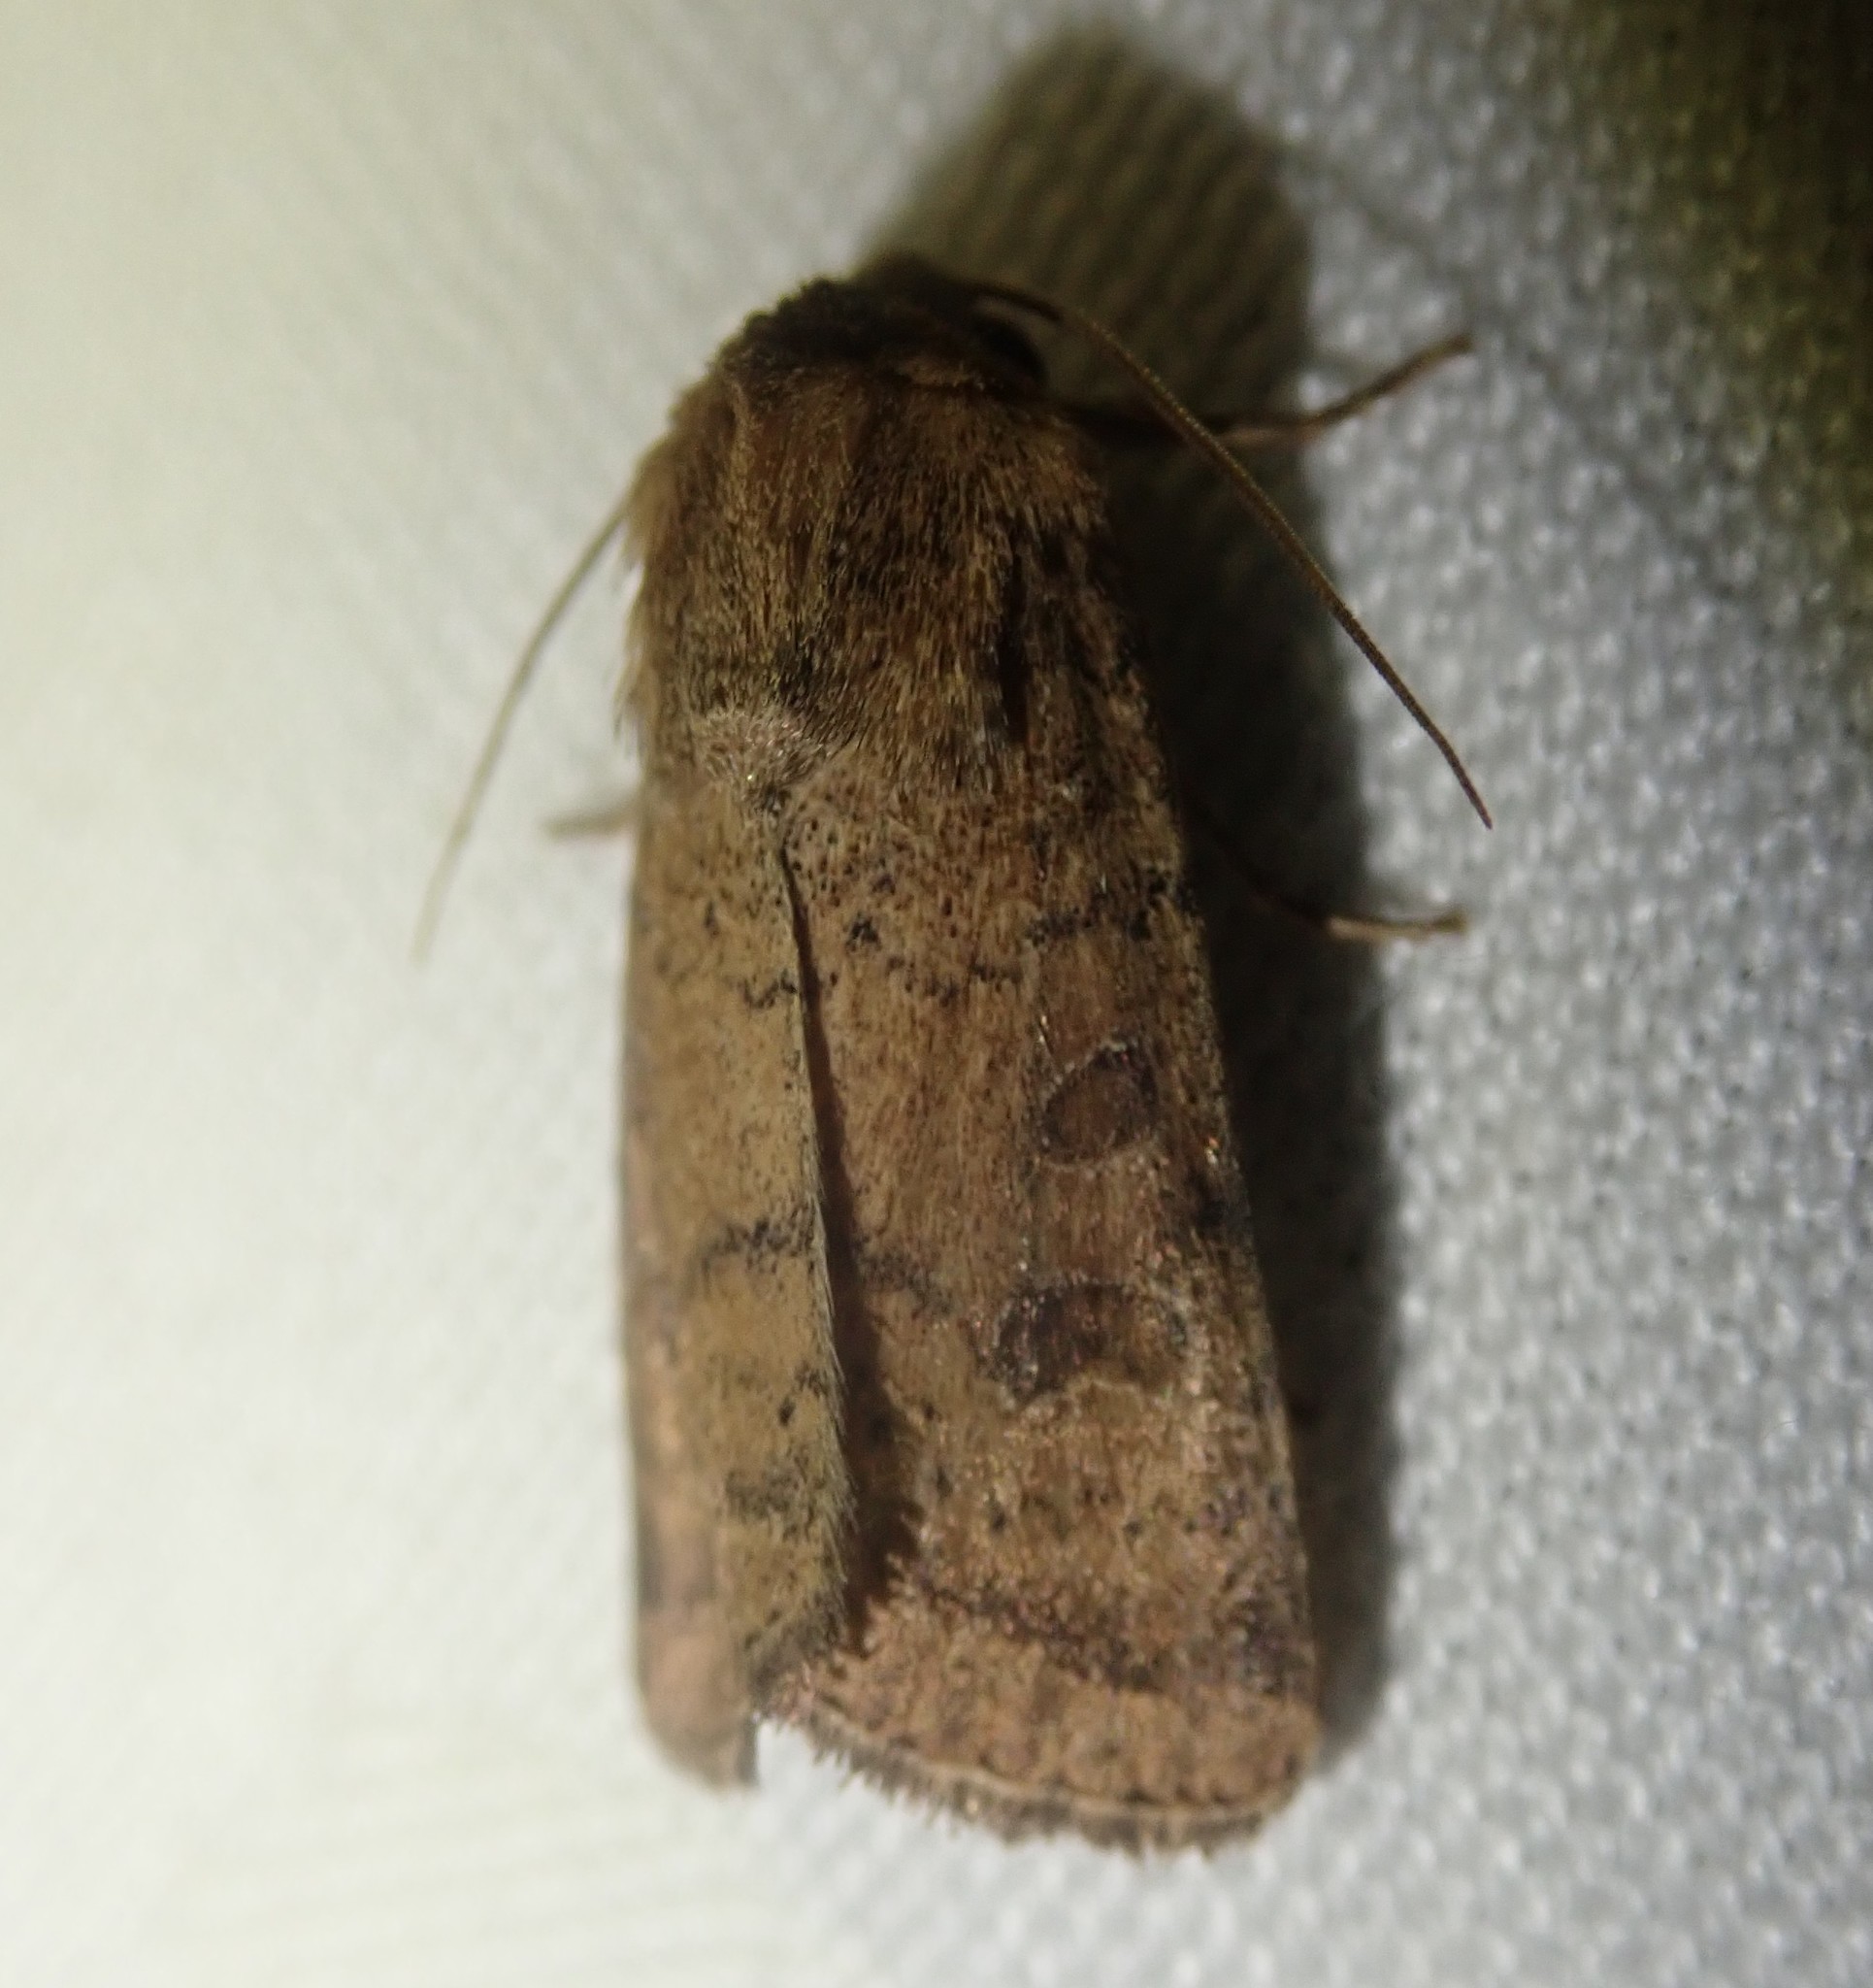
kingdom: Animalia
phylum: Arthropoda
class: Insecta
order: Lepidoptera
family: Noctuidae
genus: Hoplodrina
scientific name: Hoplodrina octogenaria
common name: Uncertain
